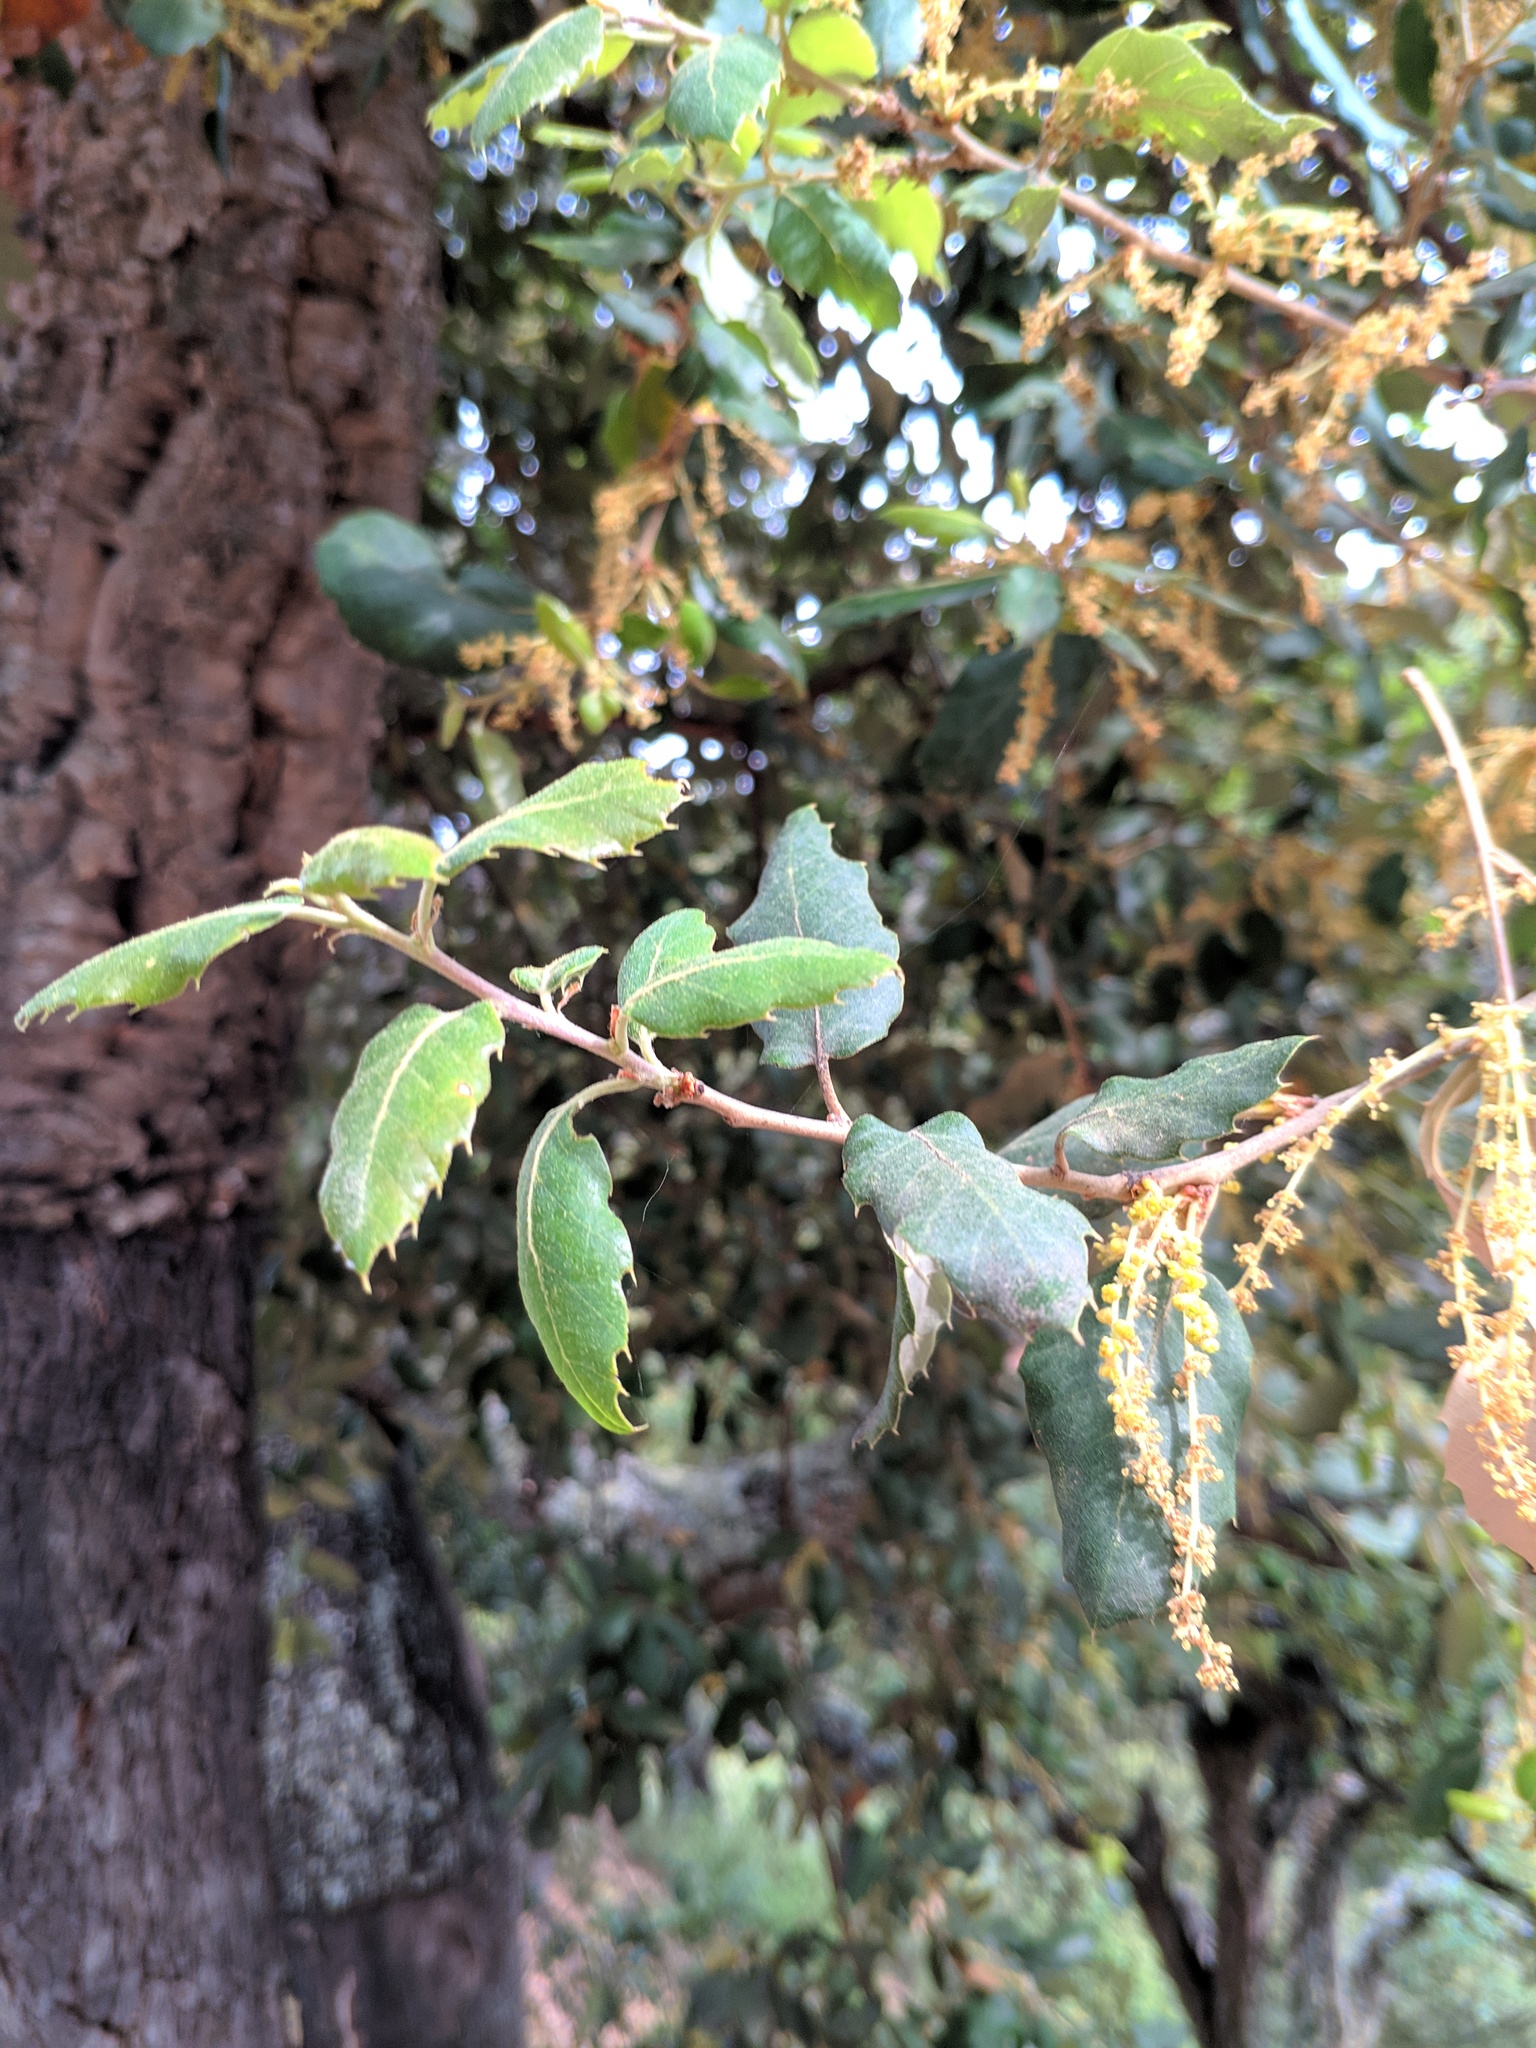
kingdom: Plantae
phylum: Tracheophyta
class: Magnoliopsida
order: Fagales
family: Fagaceae
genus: Quercus
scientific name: Quercus suber
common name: Cork oak
